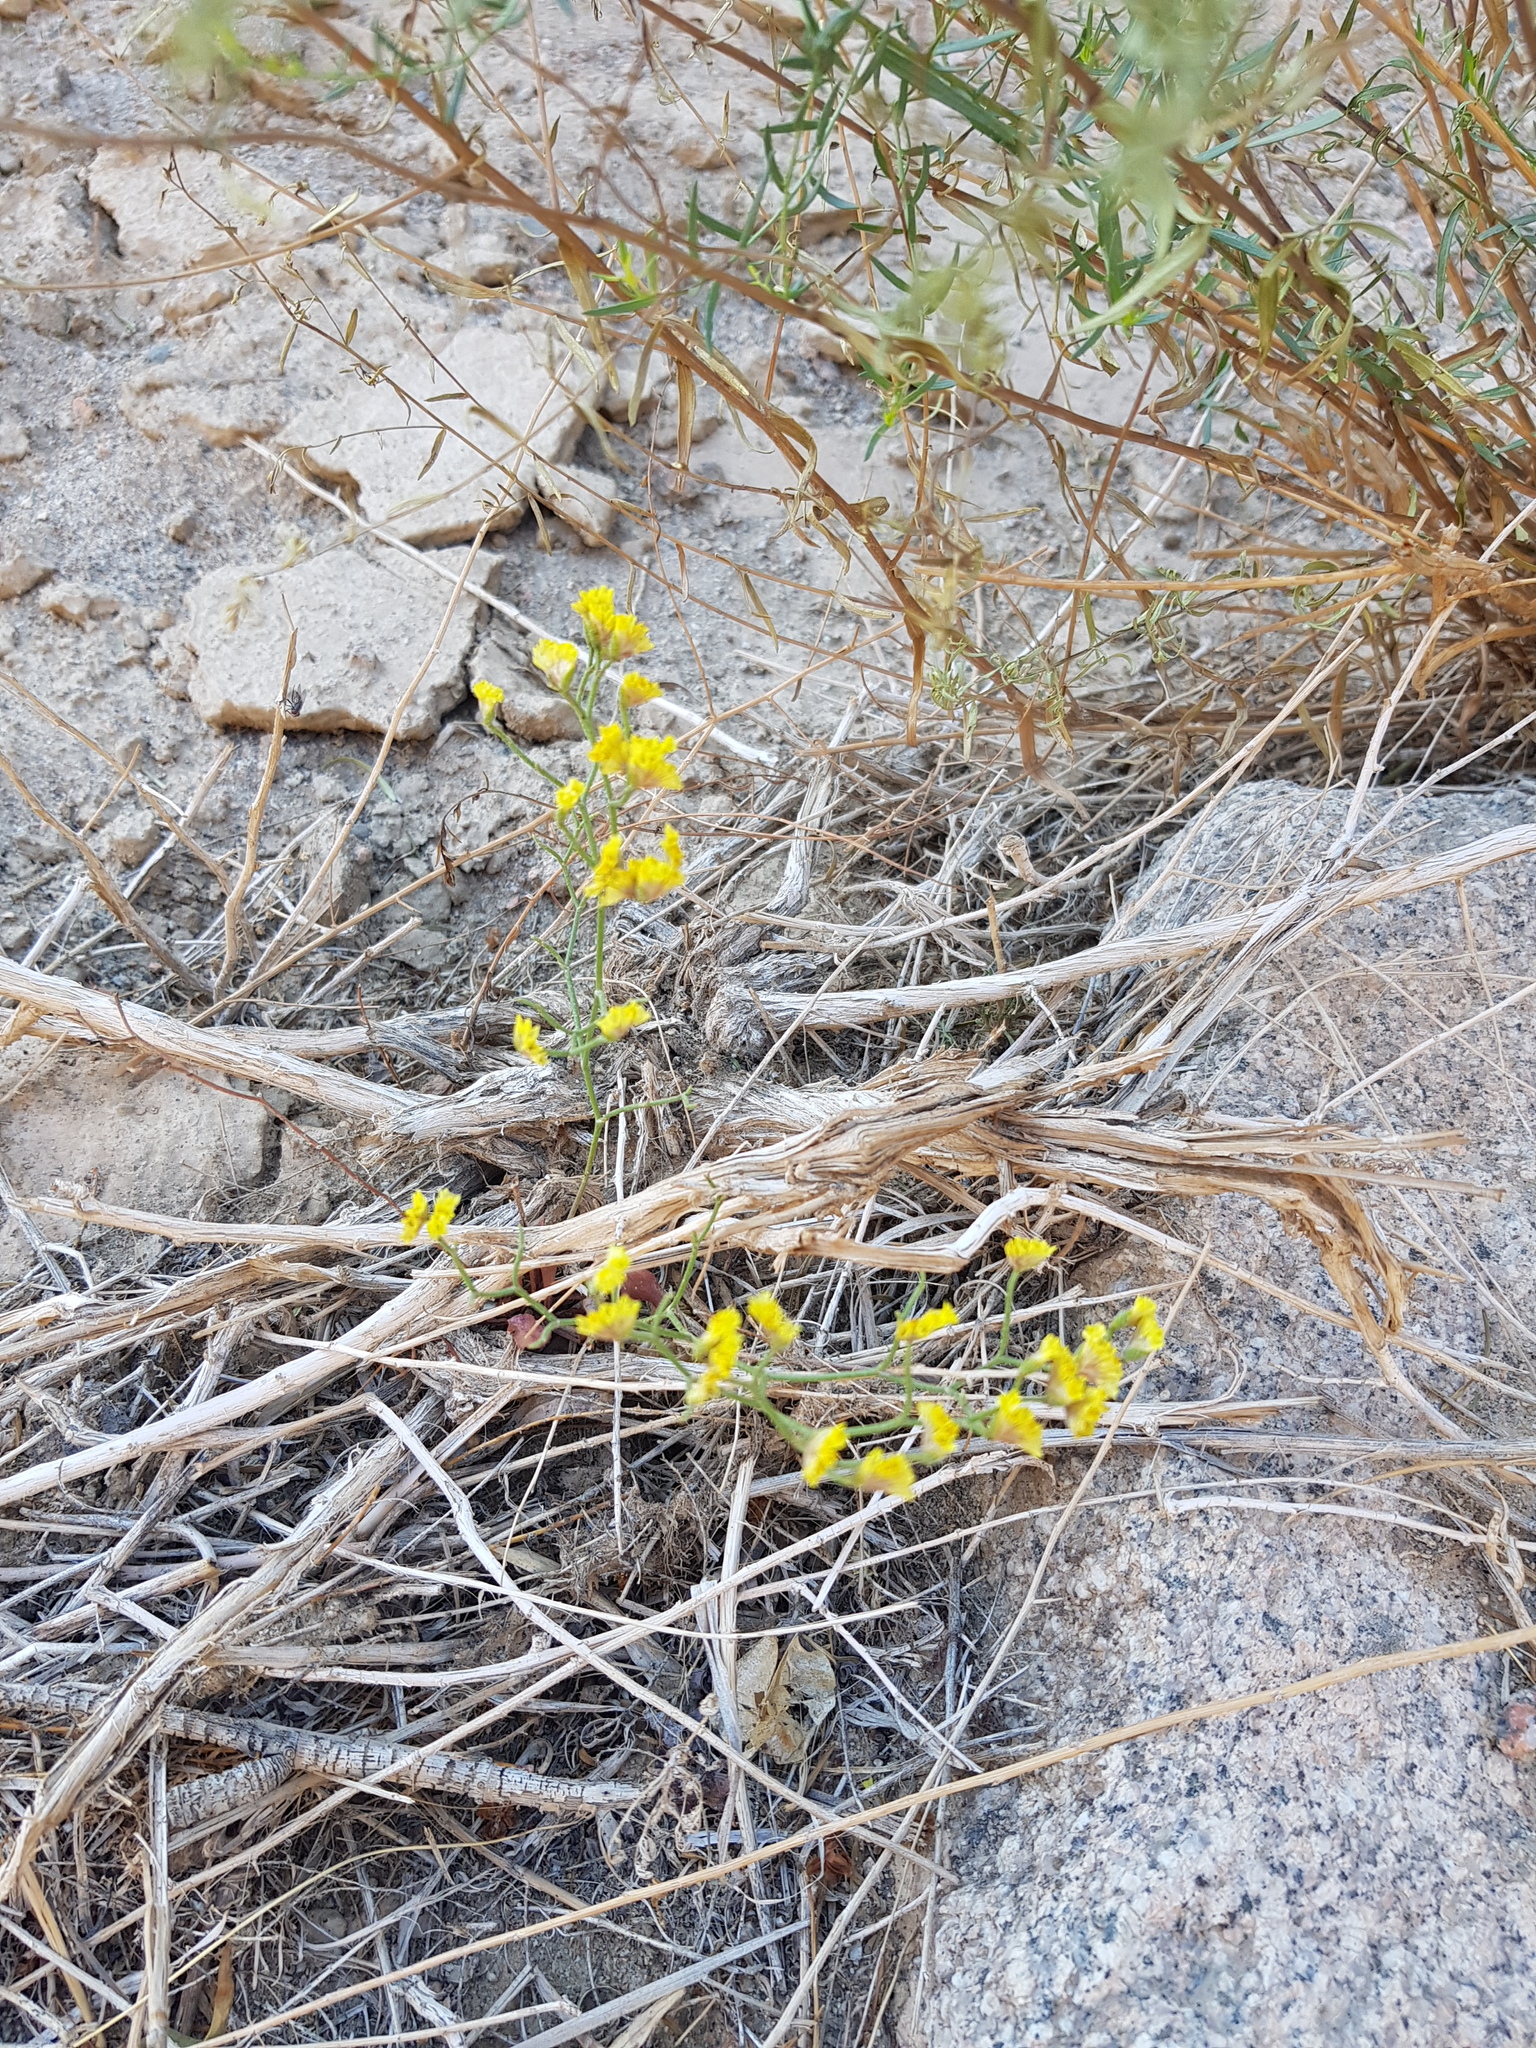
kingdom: Plantae
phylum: Tracheophyta
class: Magnoliopsida
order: Caryophyllales
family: Plumbaginaceae
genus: Limonium
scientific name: Limonium aureum
